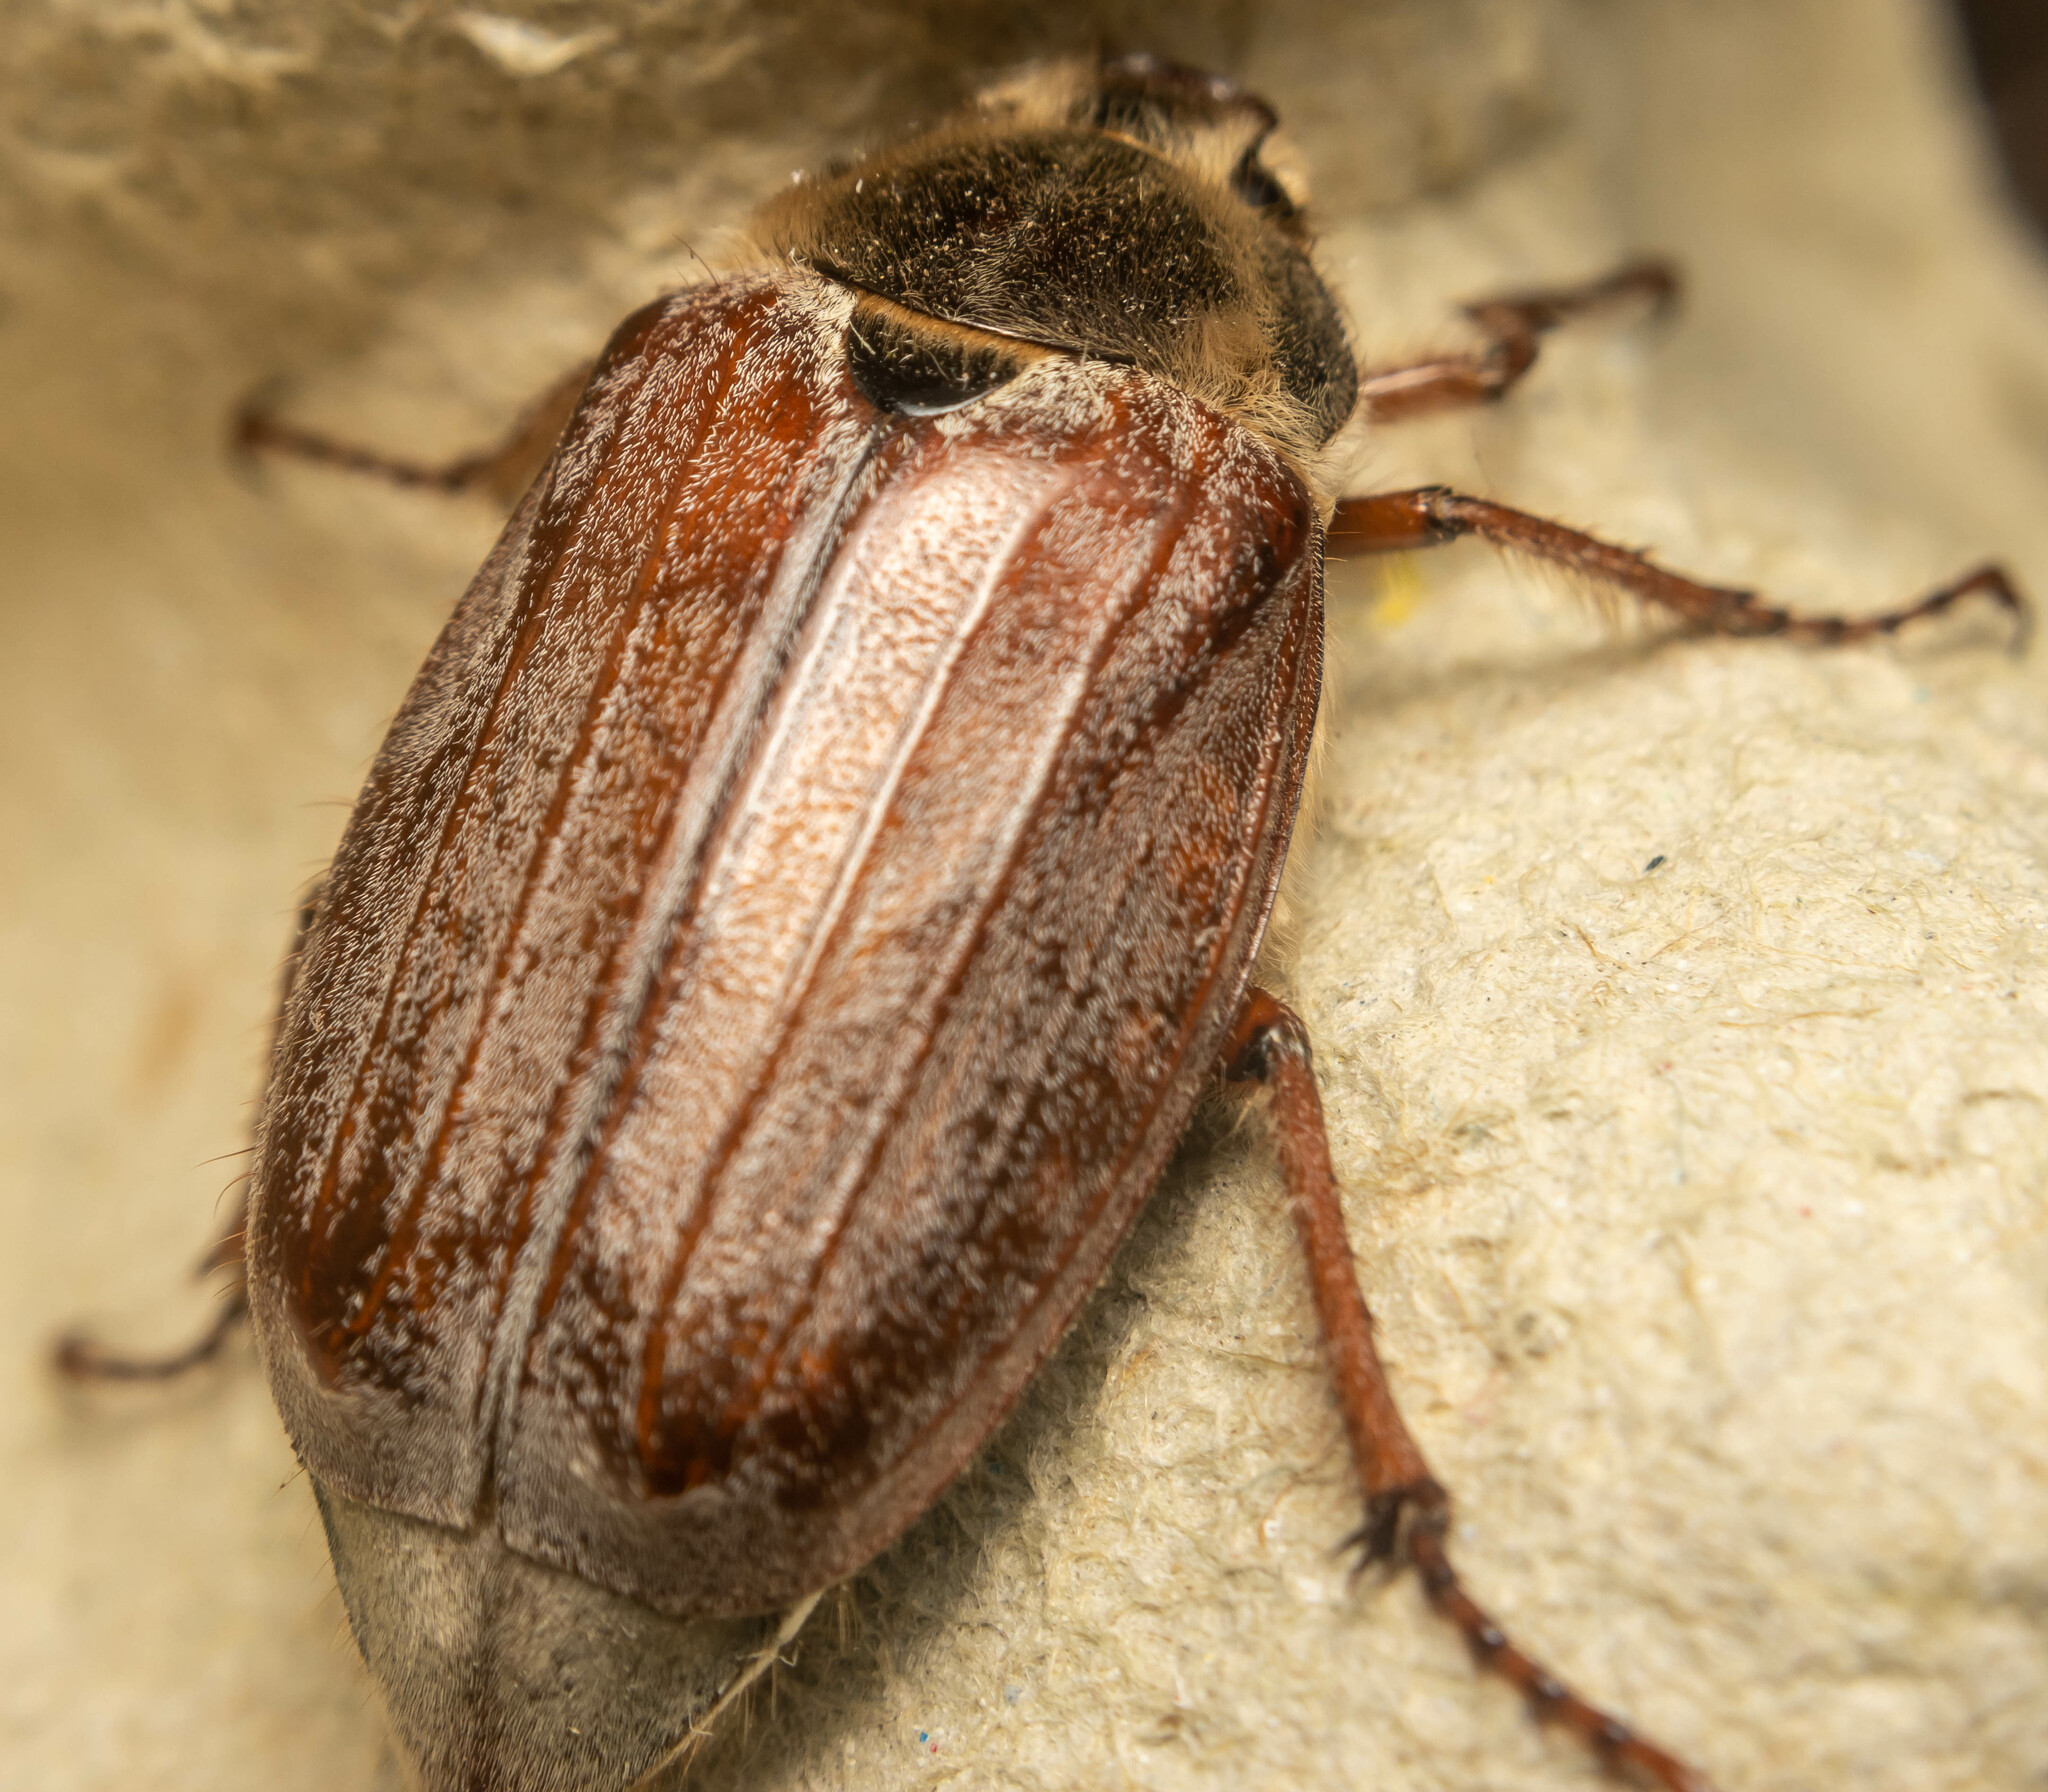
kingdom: Animalia
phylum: Arthropoda
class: Insecta
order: Coleoptera
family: Scarabaeidae
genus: Melolontha
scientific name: Melolontha melolontha
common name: Cockchafer maybeetle
